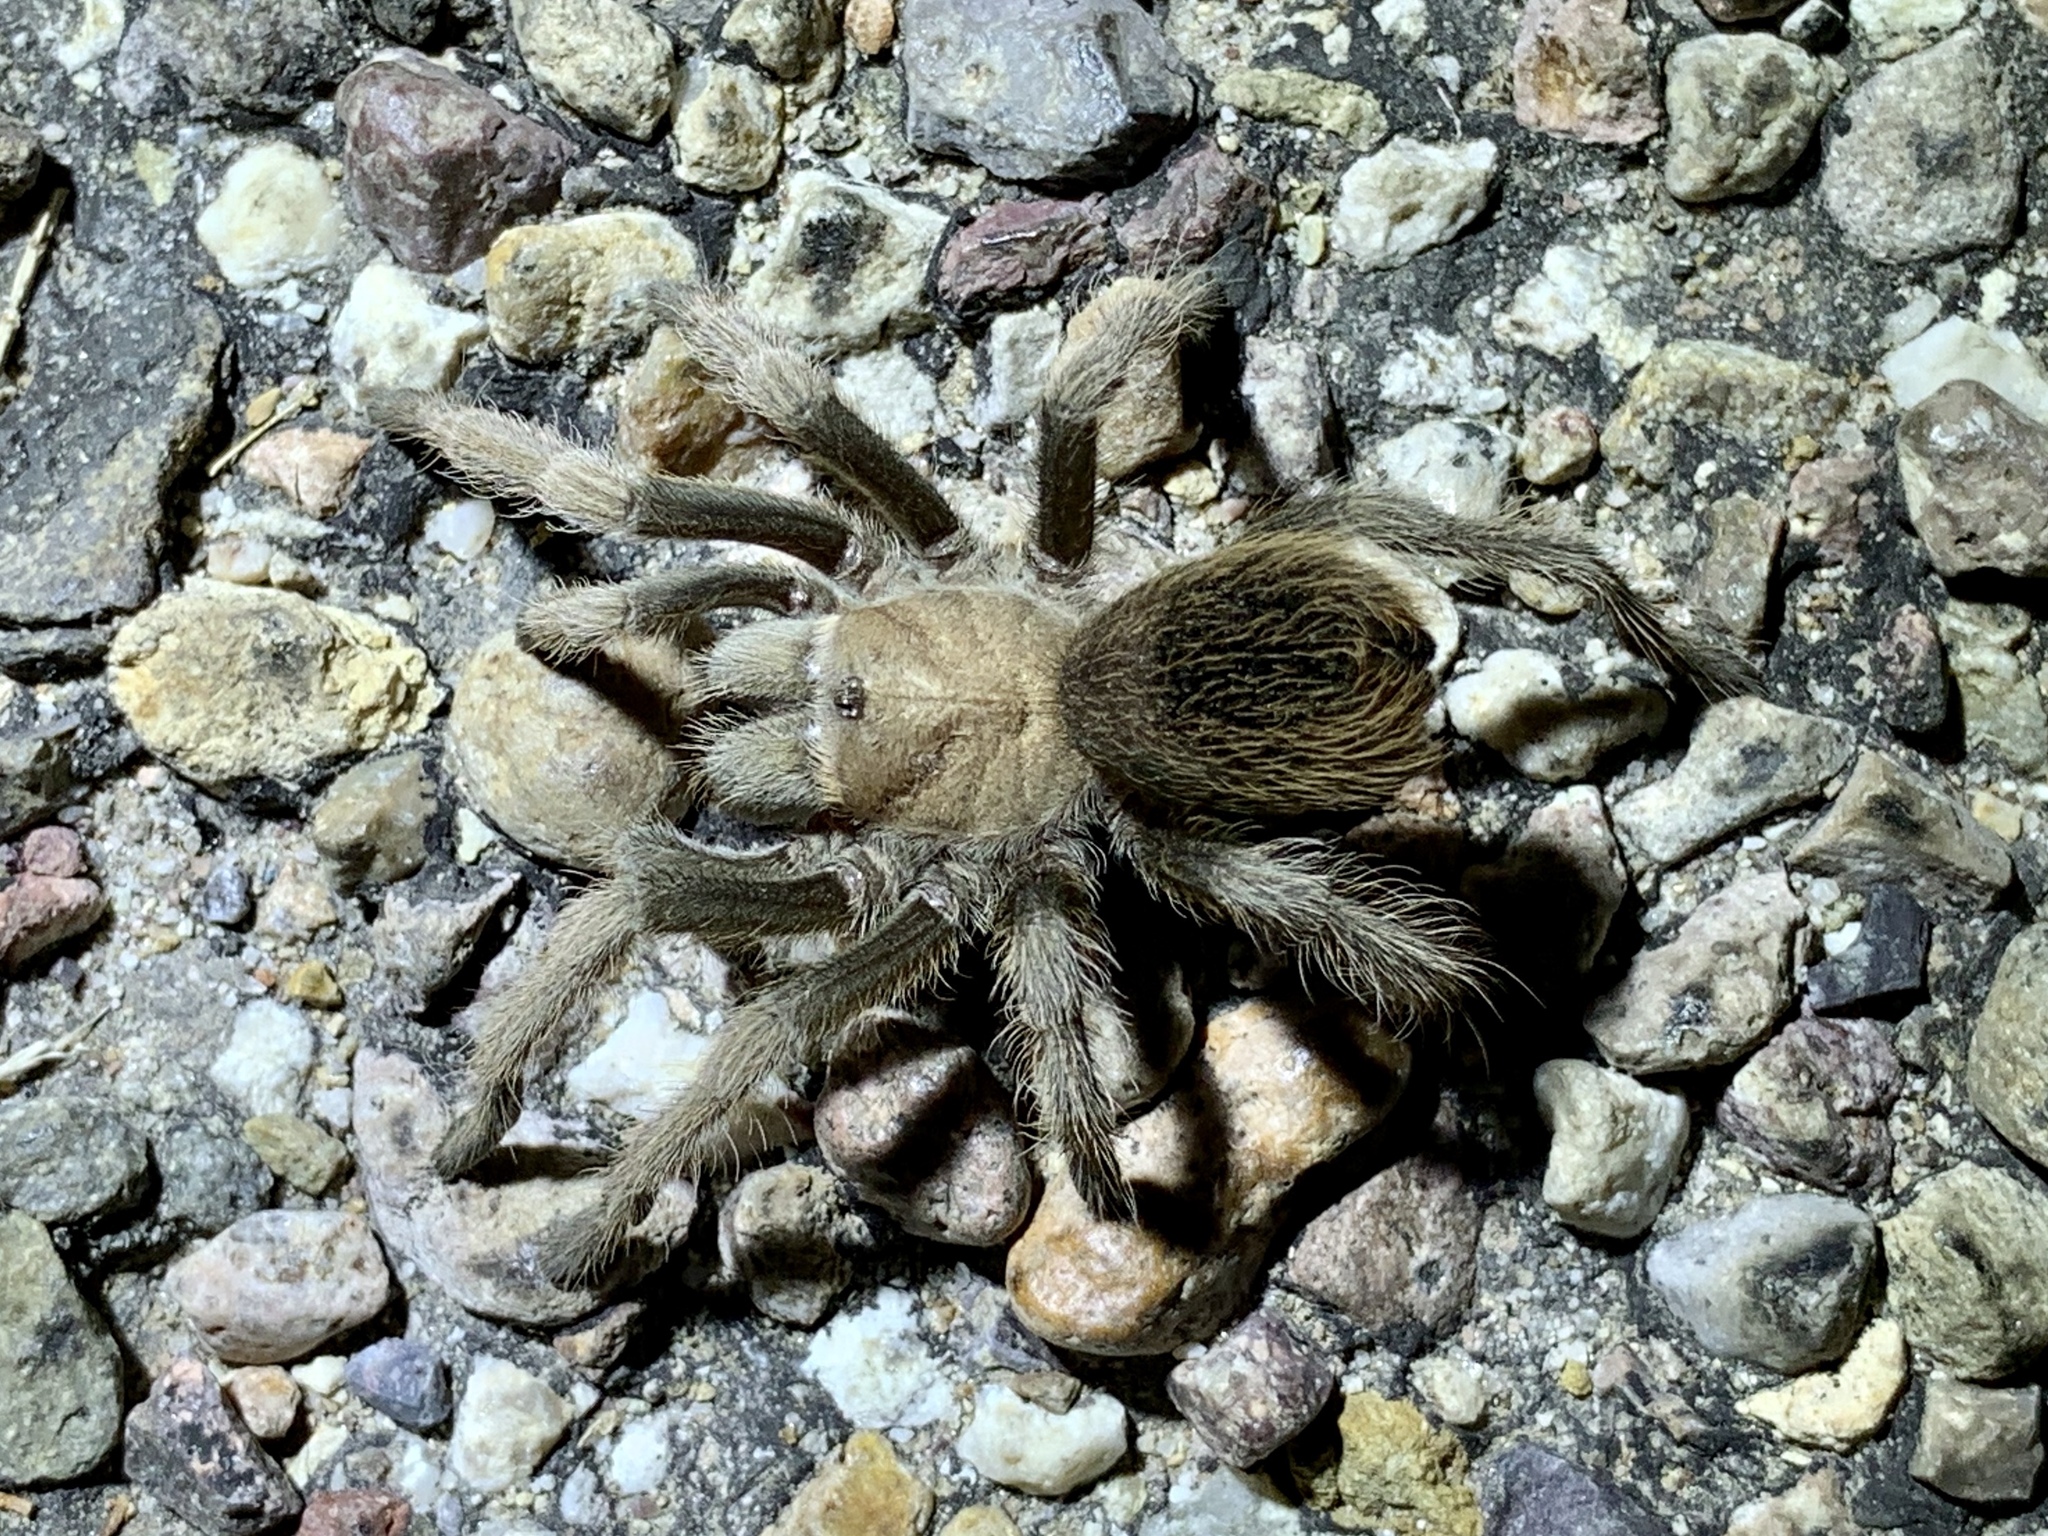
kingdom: Animalia
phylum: Arthropoda
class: Arachnida
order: Araneae
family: Theraphosidae
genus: Aphonopelma
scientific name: Aphonopelma chalcodes
